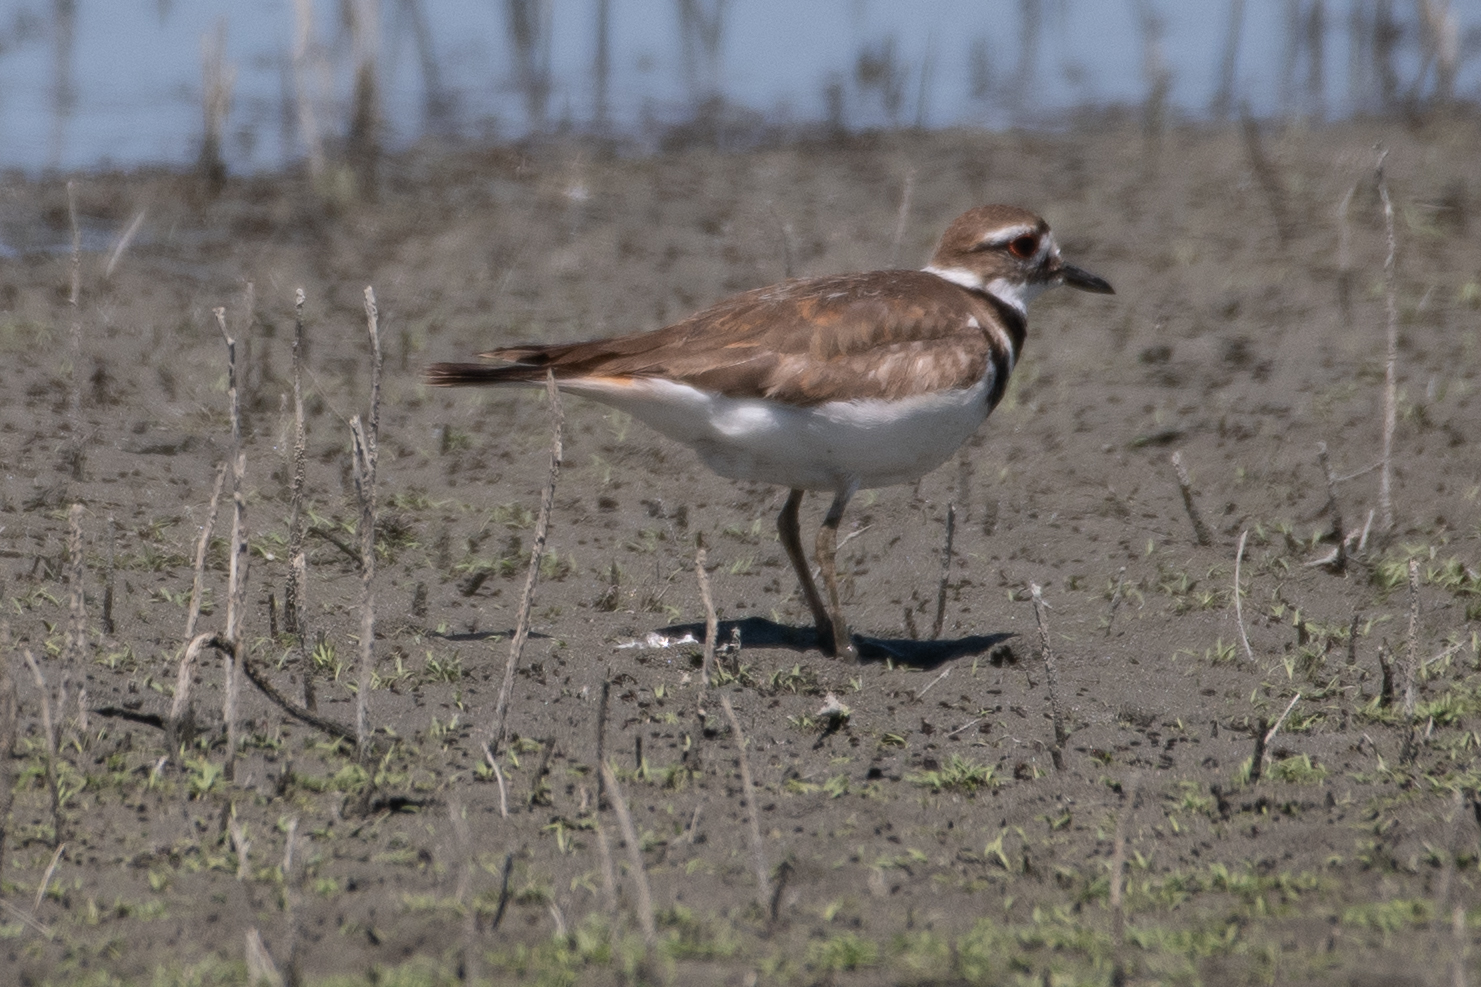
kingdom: Animalia
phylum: Chordata
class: Aves
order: Charadriiformes
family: Charadriidae
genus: Charadrius
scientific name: Charadrius vociferus
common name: Killdeer
